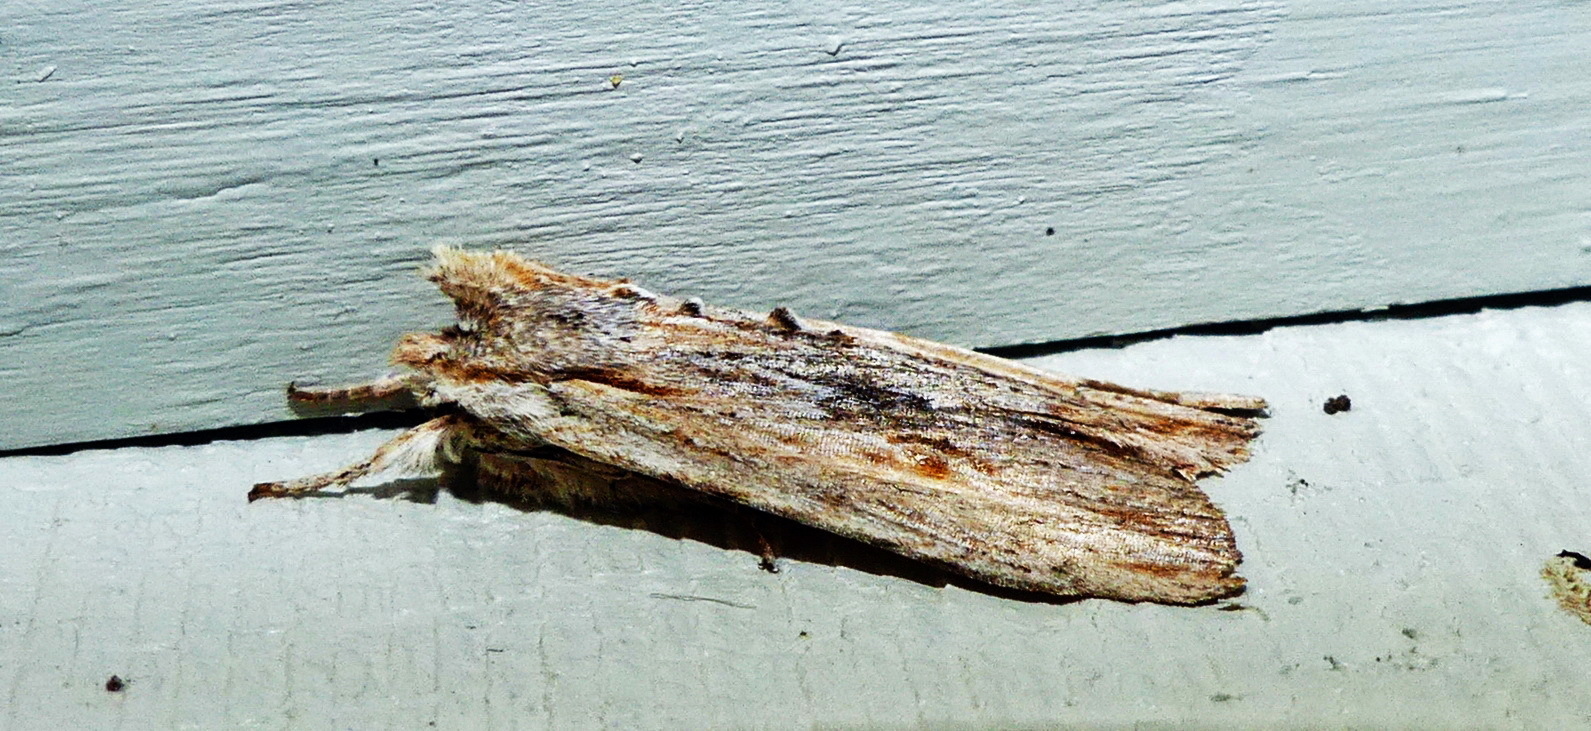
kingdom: Animalia
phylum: Arthropoda
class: Insecta
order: Lepidoptera
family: Noctuidae
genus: Lithophane
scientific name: Lithophane amanda
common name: Amanda's pinion moth
